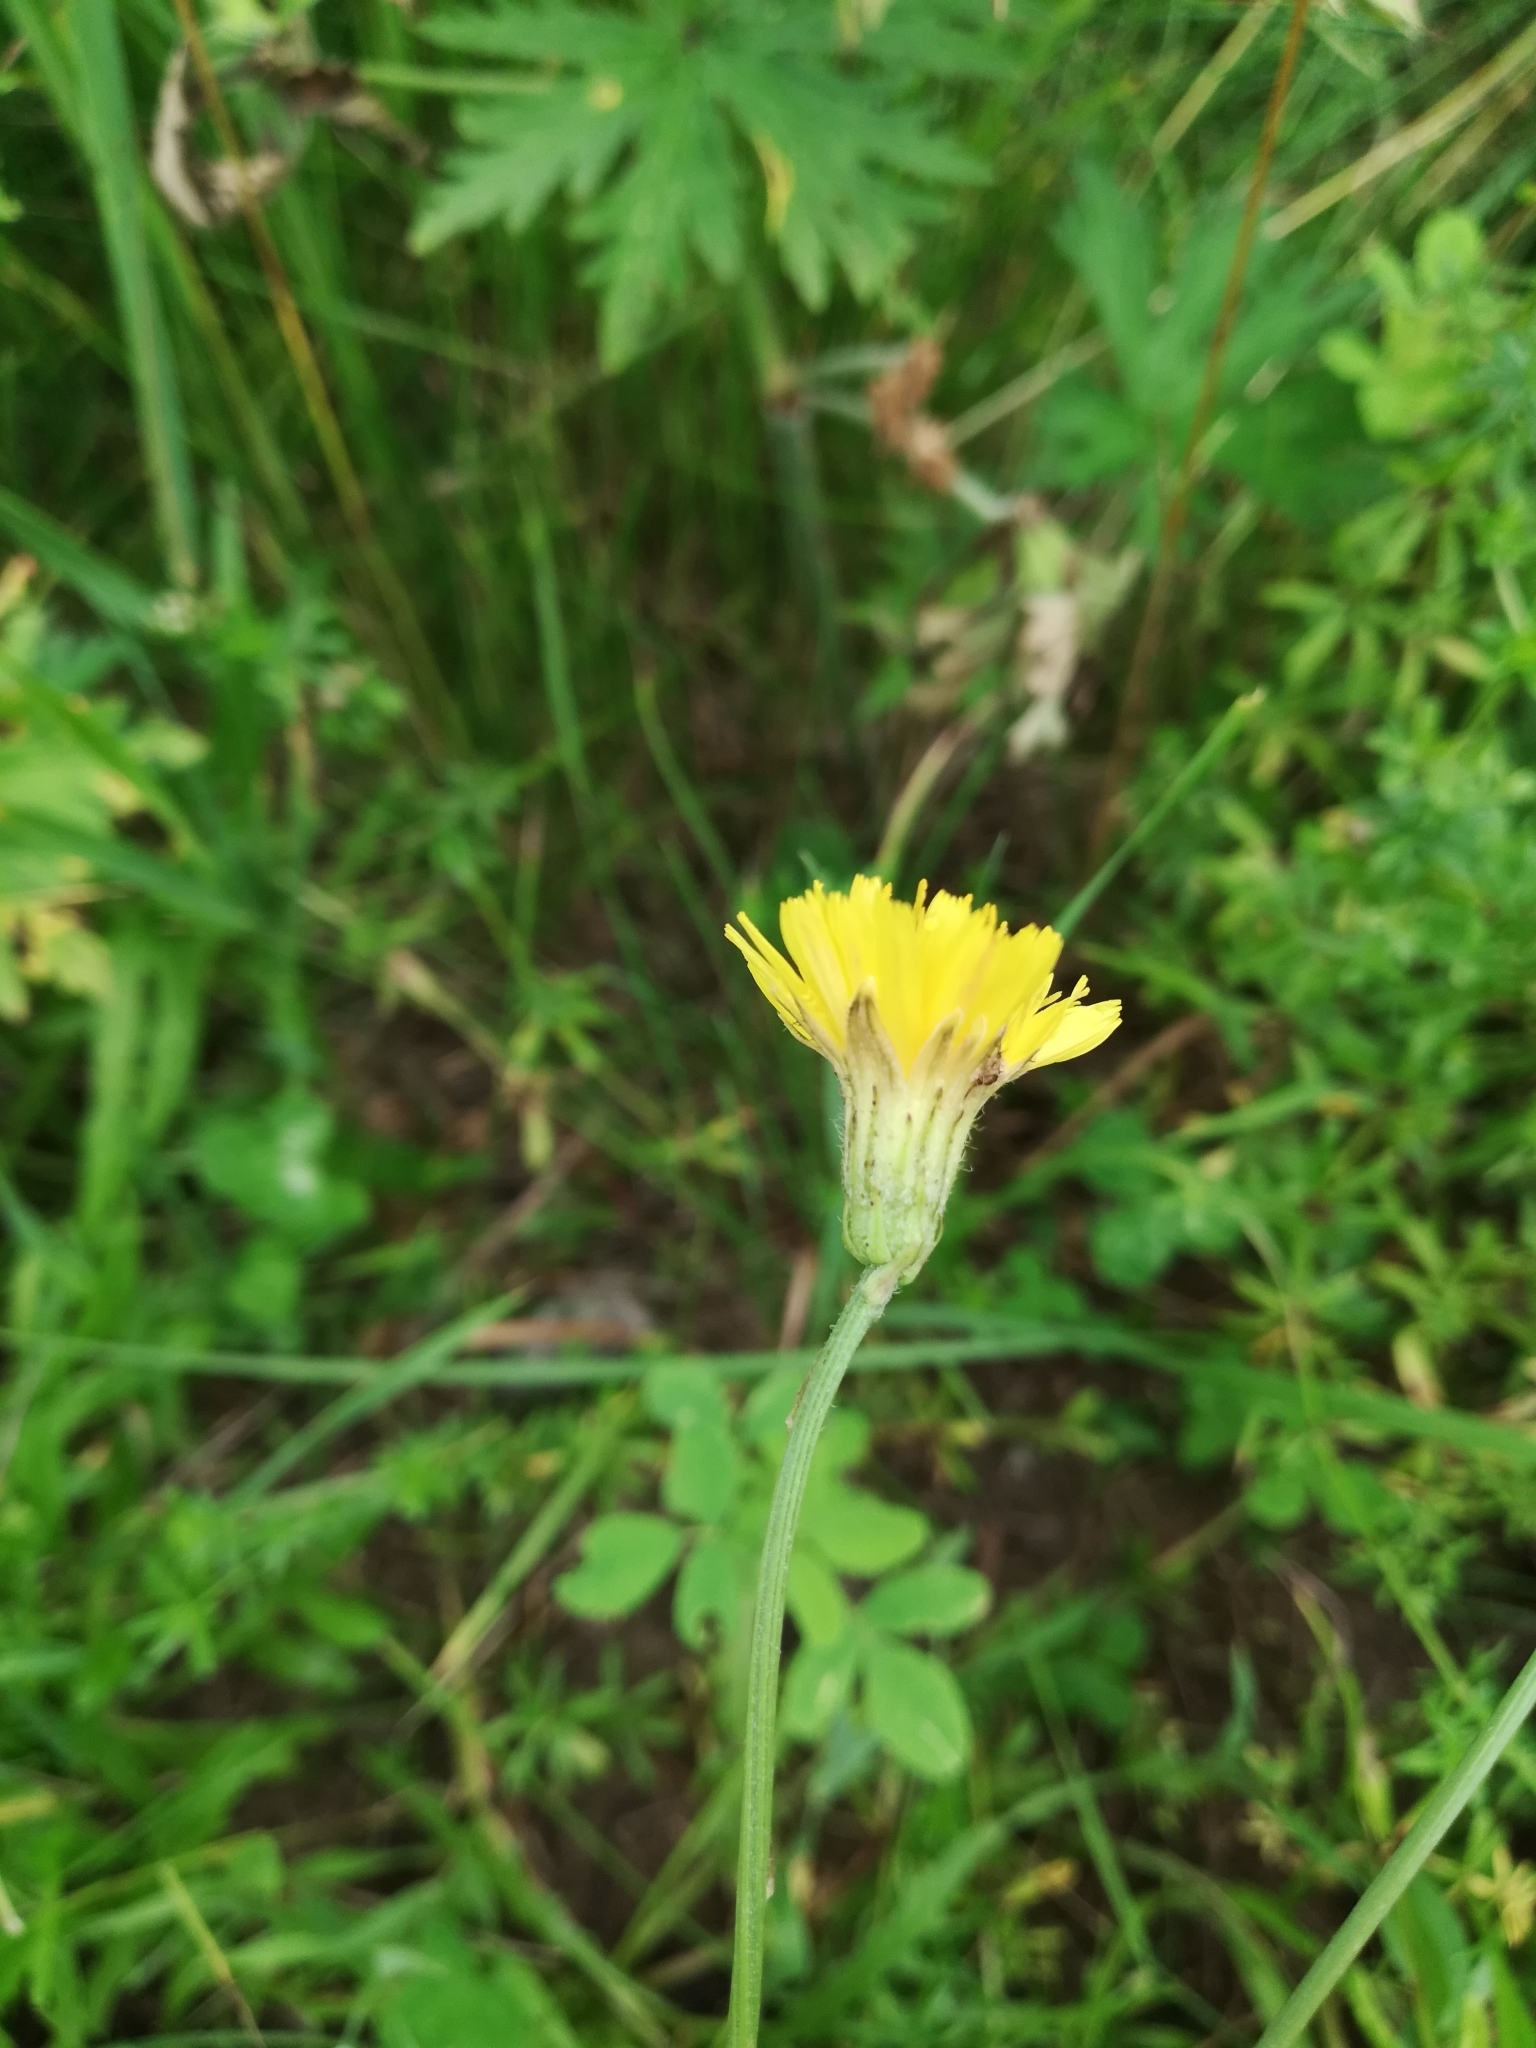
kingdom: Plantae
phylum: Tracheophyta
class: Magnoliopsida
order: Asterales
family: Asteraceae
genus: Scorzoneroides
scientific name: Scorzoneroides autumnalis
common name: Autumn hawkbit
